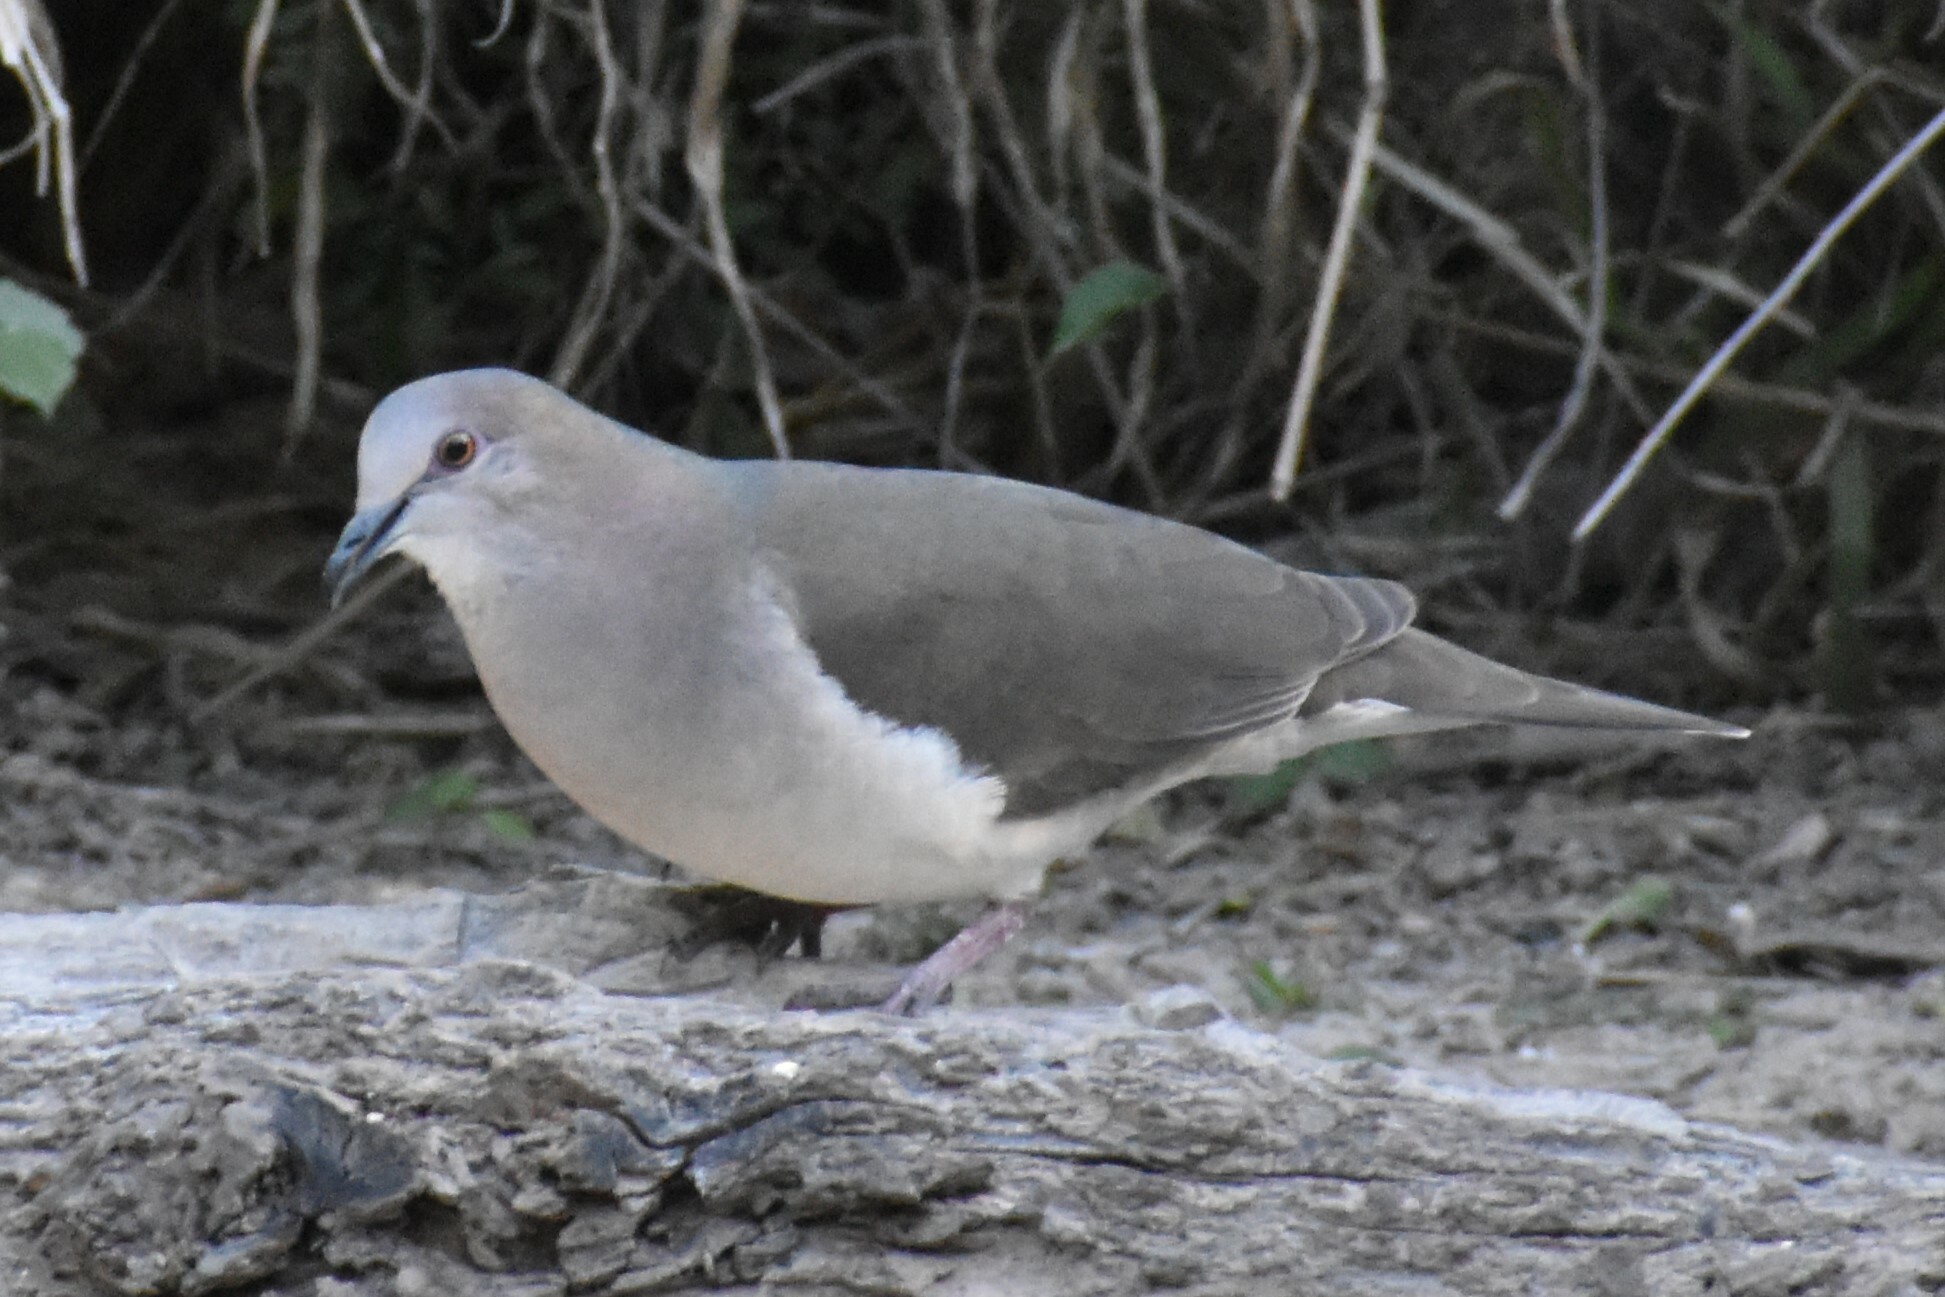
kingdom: Animalia
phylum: Chordata
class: Aves
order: Columbiformes
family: Columbidae
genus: Leptotila
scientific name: Leptotila verreauxi
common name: White-tipped dove
